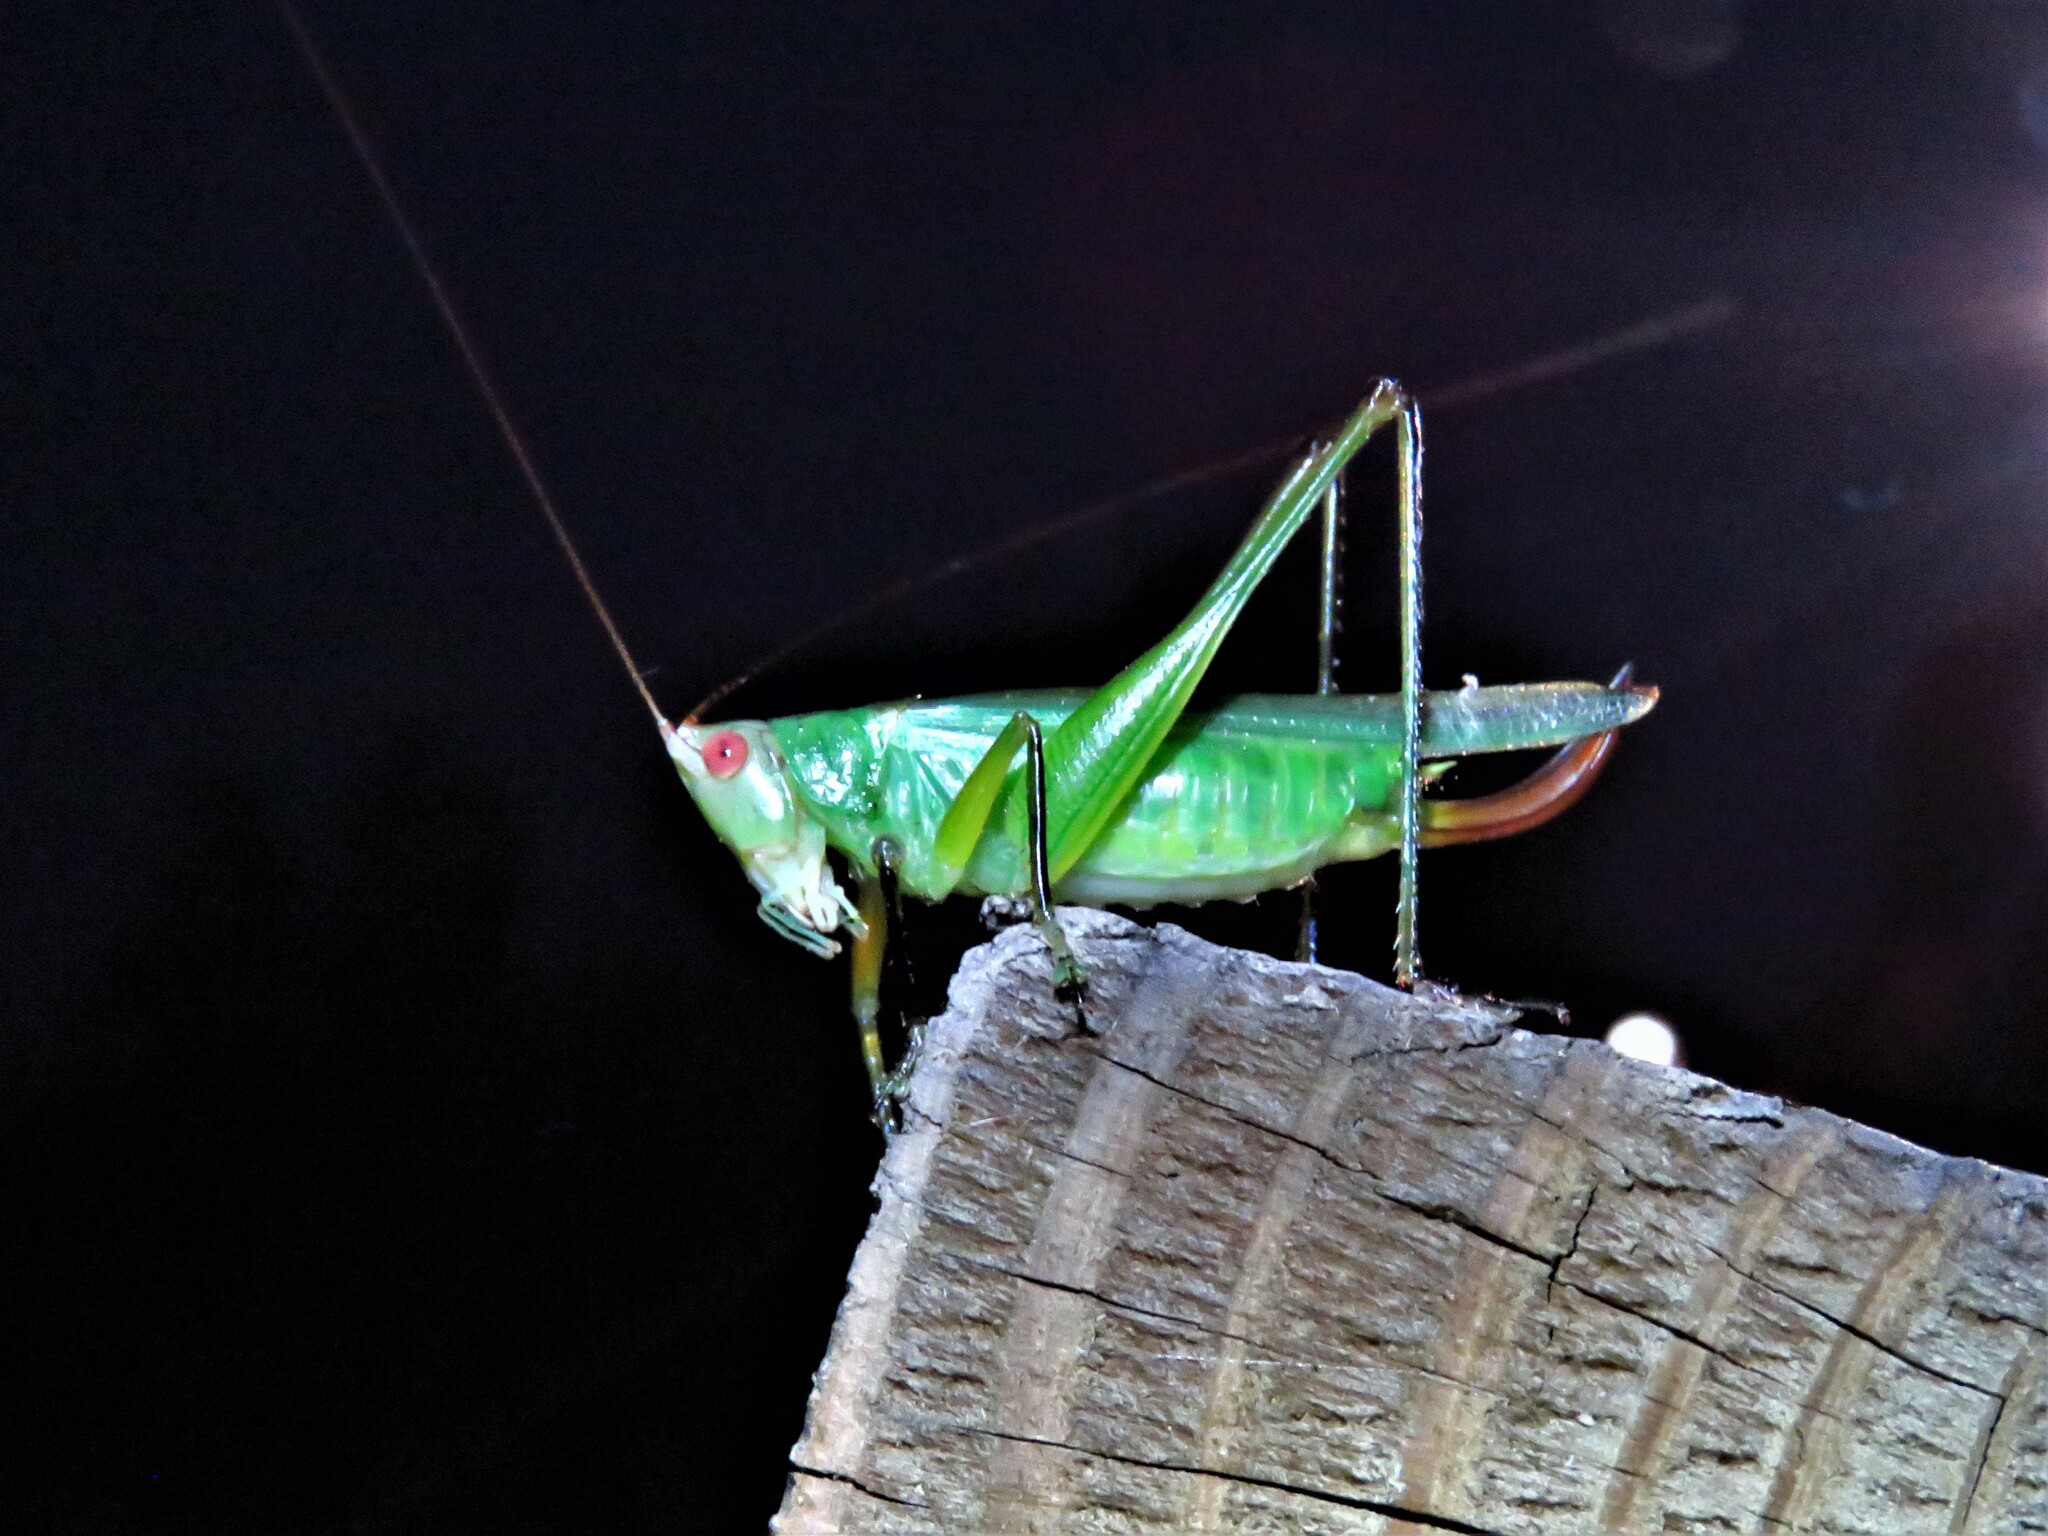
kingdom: Animalia
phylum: Arthropoda
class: Insecta
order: Orthoptera
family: Tettigoniidae
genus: Orchelimum
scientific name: Orchelimum nigripes
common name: Black-legged meadow katydid
